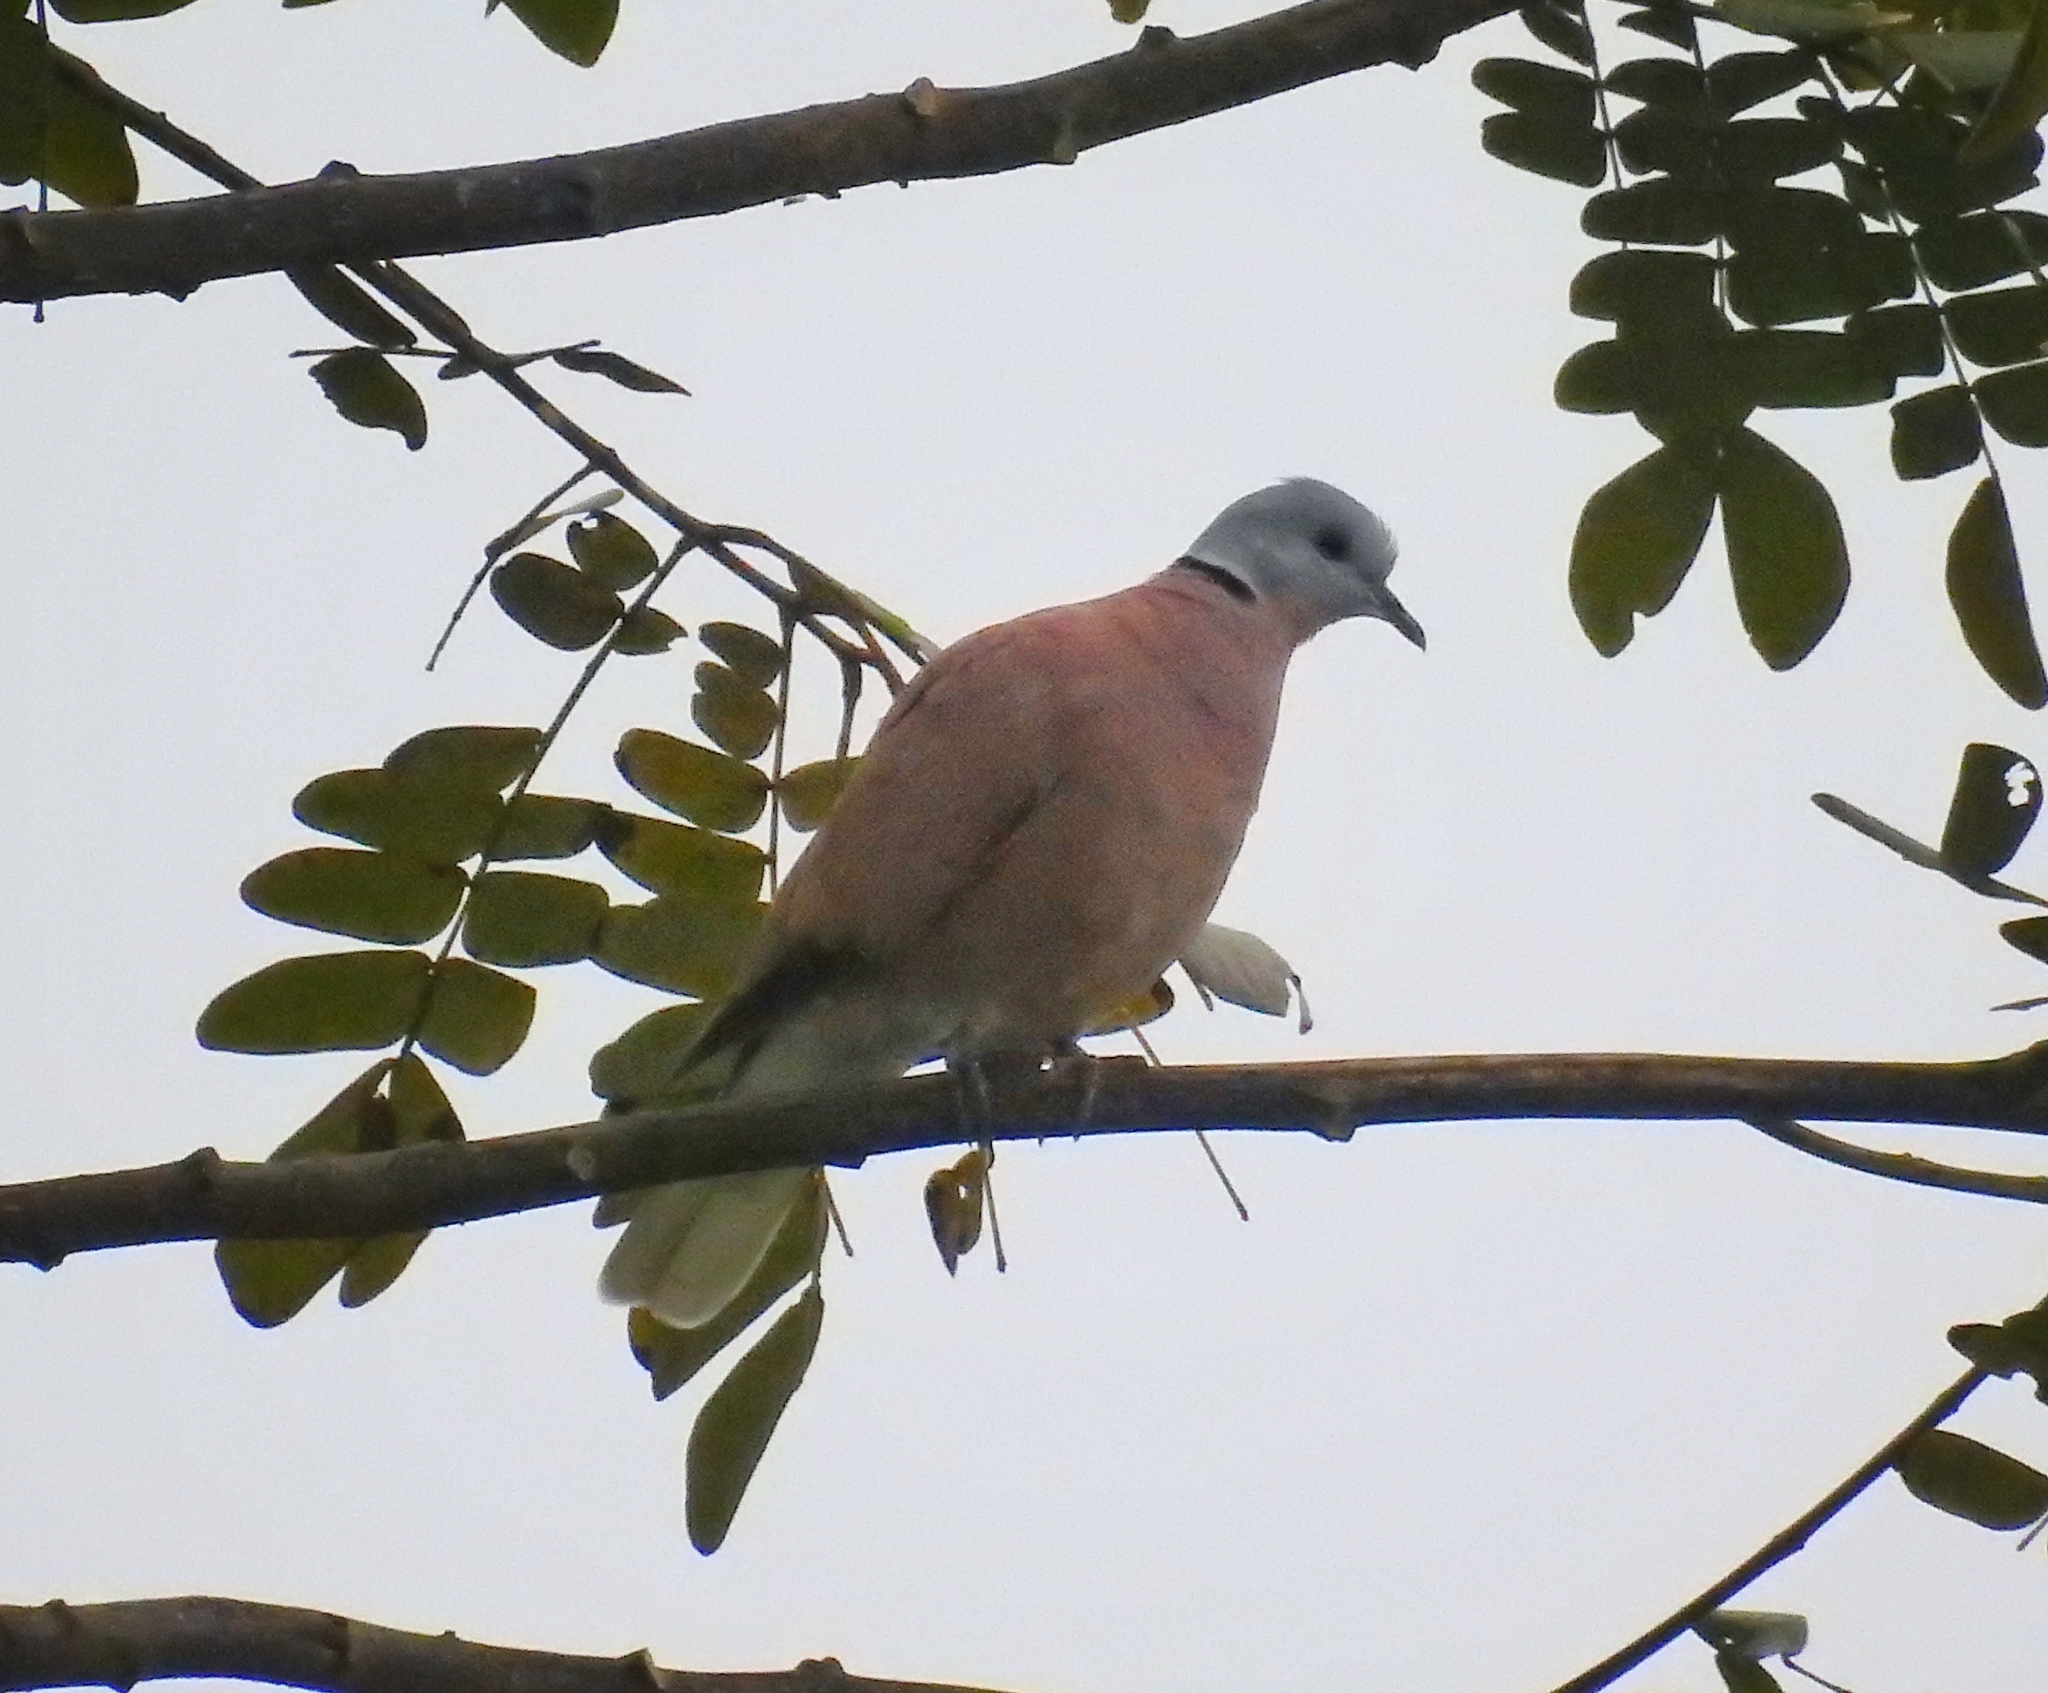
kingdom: Animalia
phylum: Chordata
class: Aves
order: Columbiformes
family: Columbidae
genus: Streptopelia
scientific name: Streptopelia tranquebarica
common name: Red turtle dove
